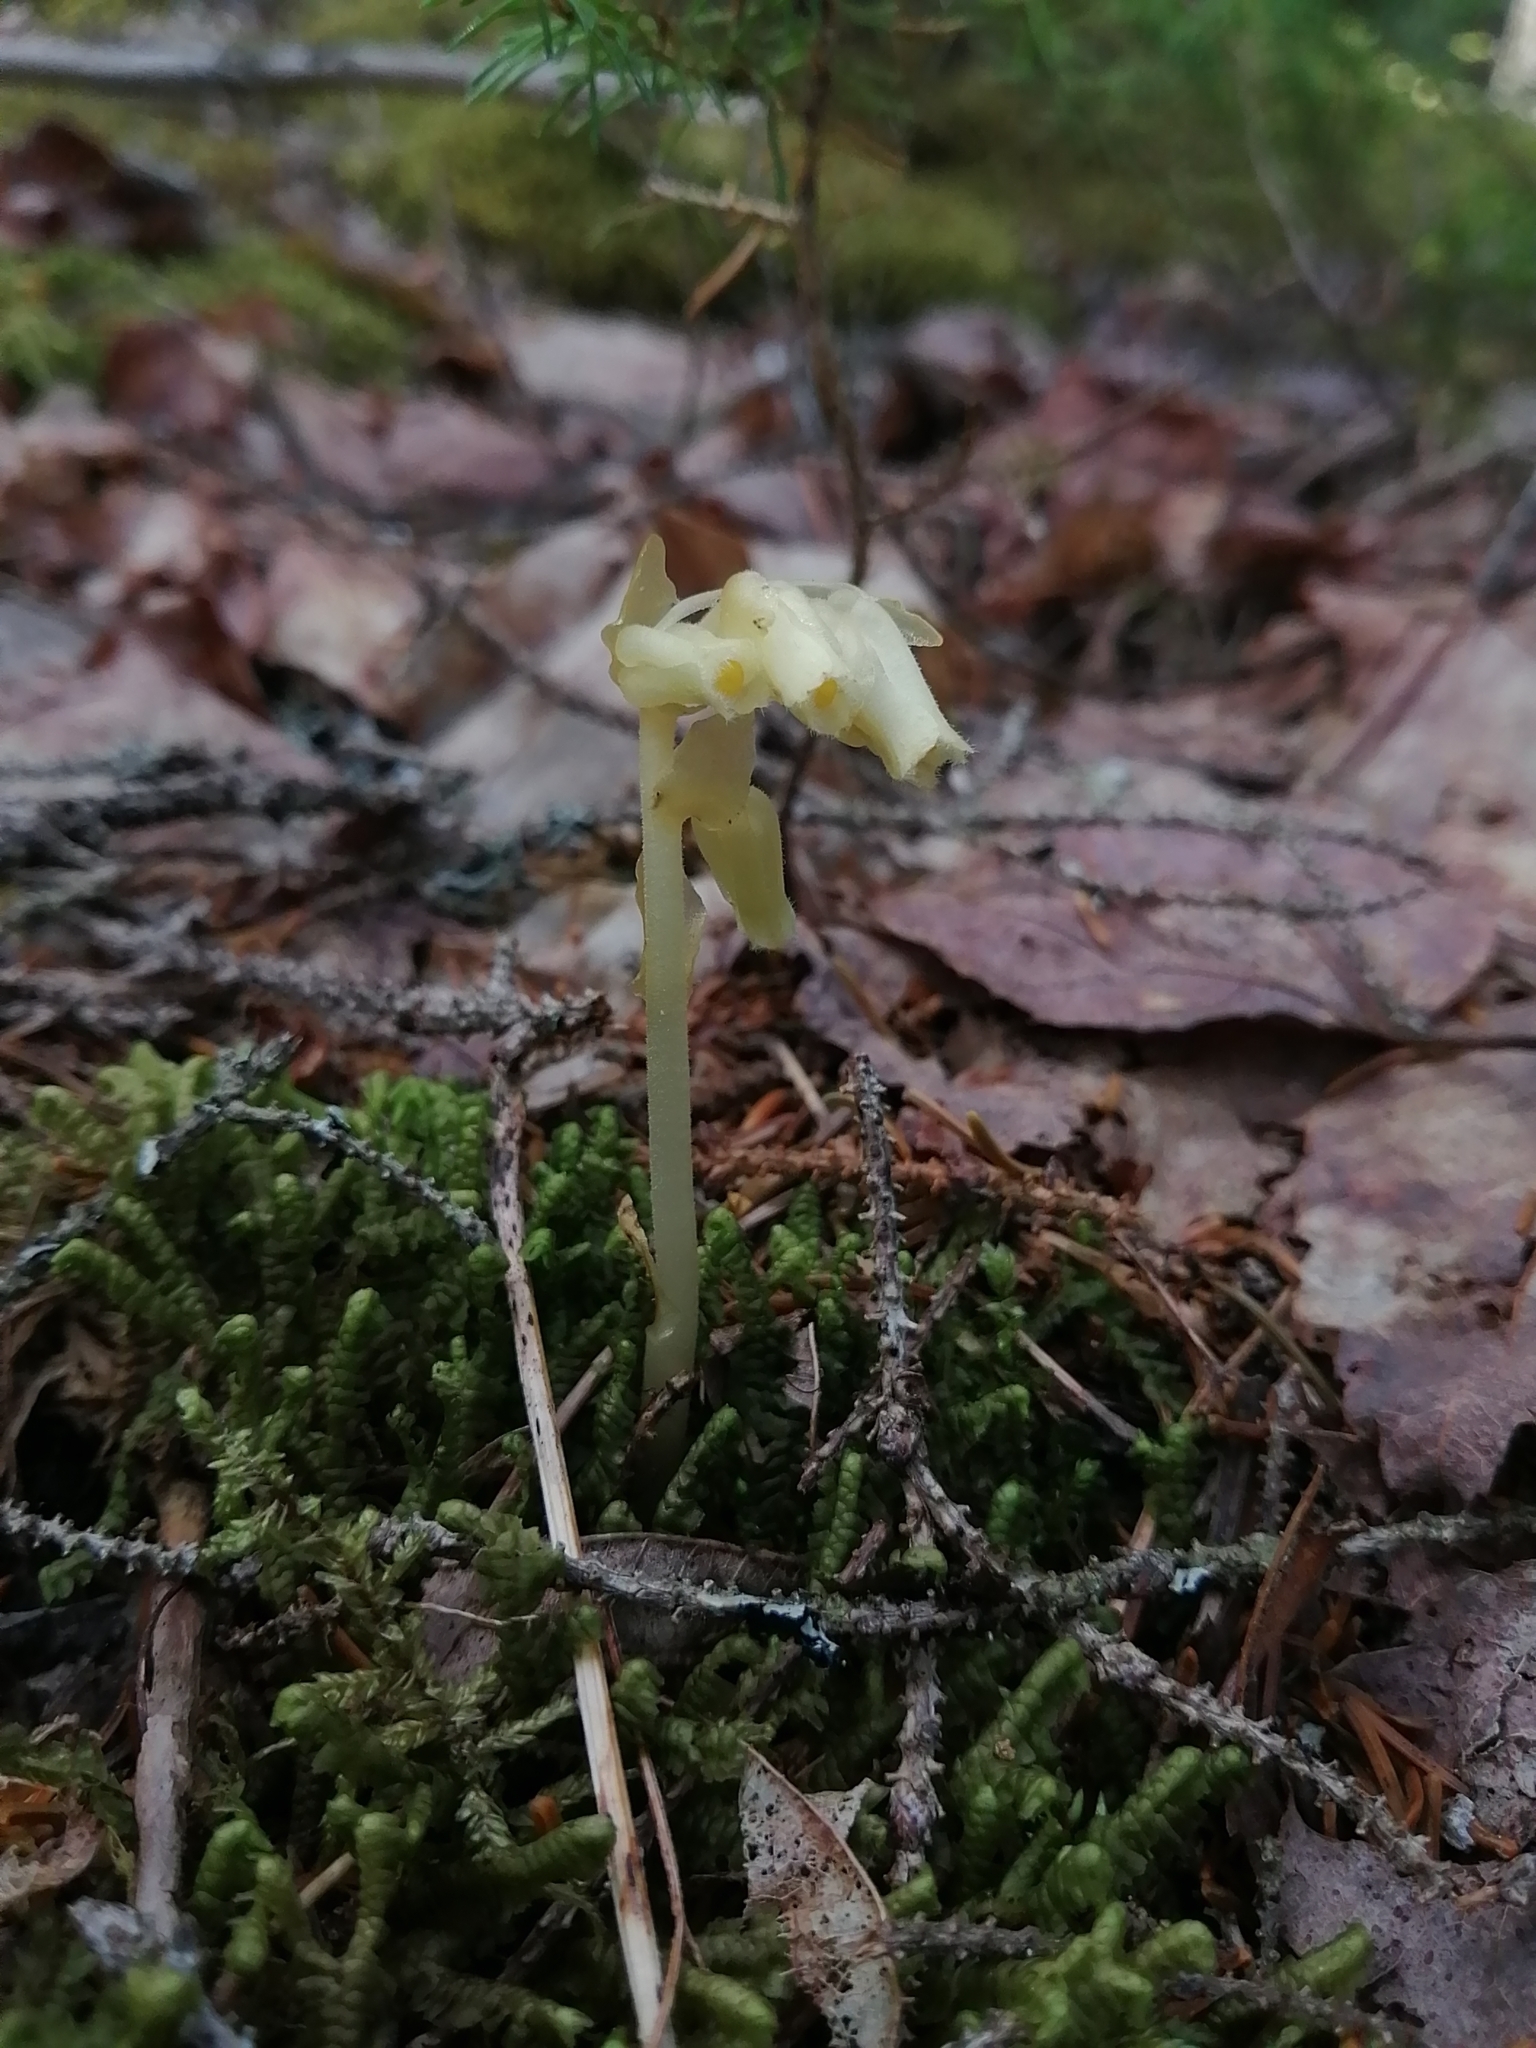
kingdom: Plantae
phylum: Tracheophyta
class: Magnoliopsida
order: Ericales
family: Ericaceae
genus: Hypopitys
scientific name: Hypopitys monotropa
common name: Yellow bird's-nest
